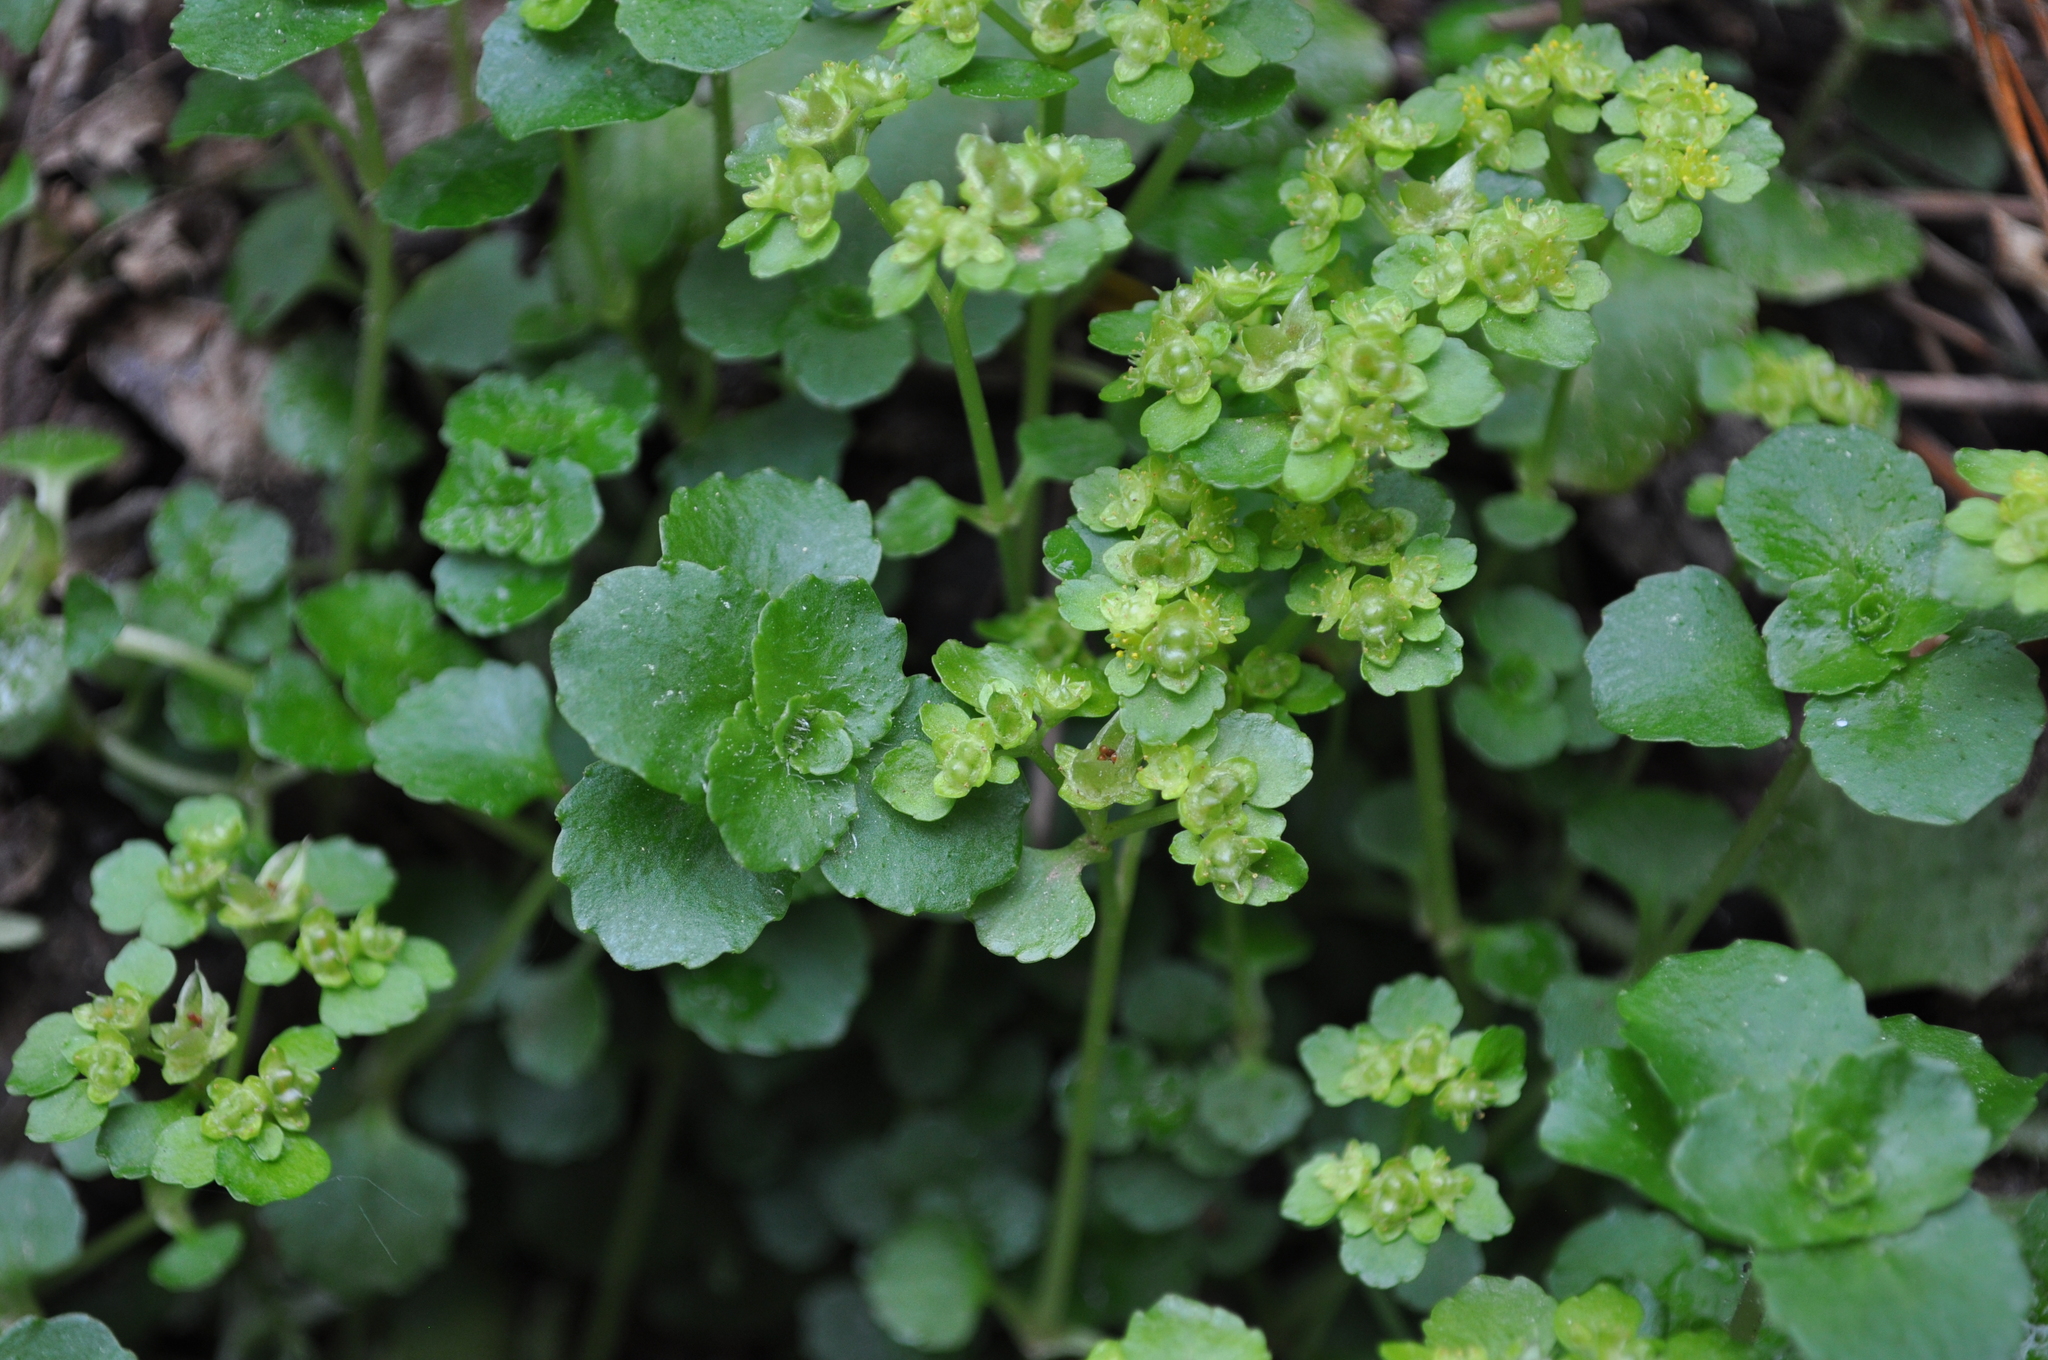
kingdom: Plantae
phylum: Tracheophyta
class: Magnoliopsida
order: Saxifragales
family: Saxifragaceae
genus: Chrysosplenium
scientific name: Chrysosplenium oppositifolium
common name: Opposite-leaved golden-saxifrage
